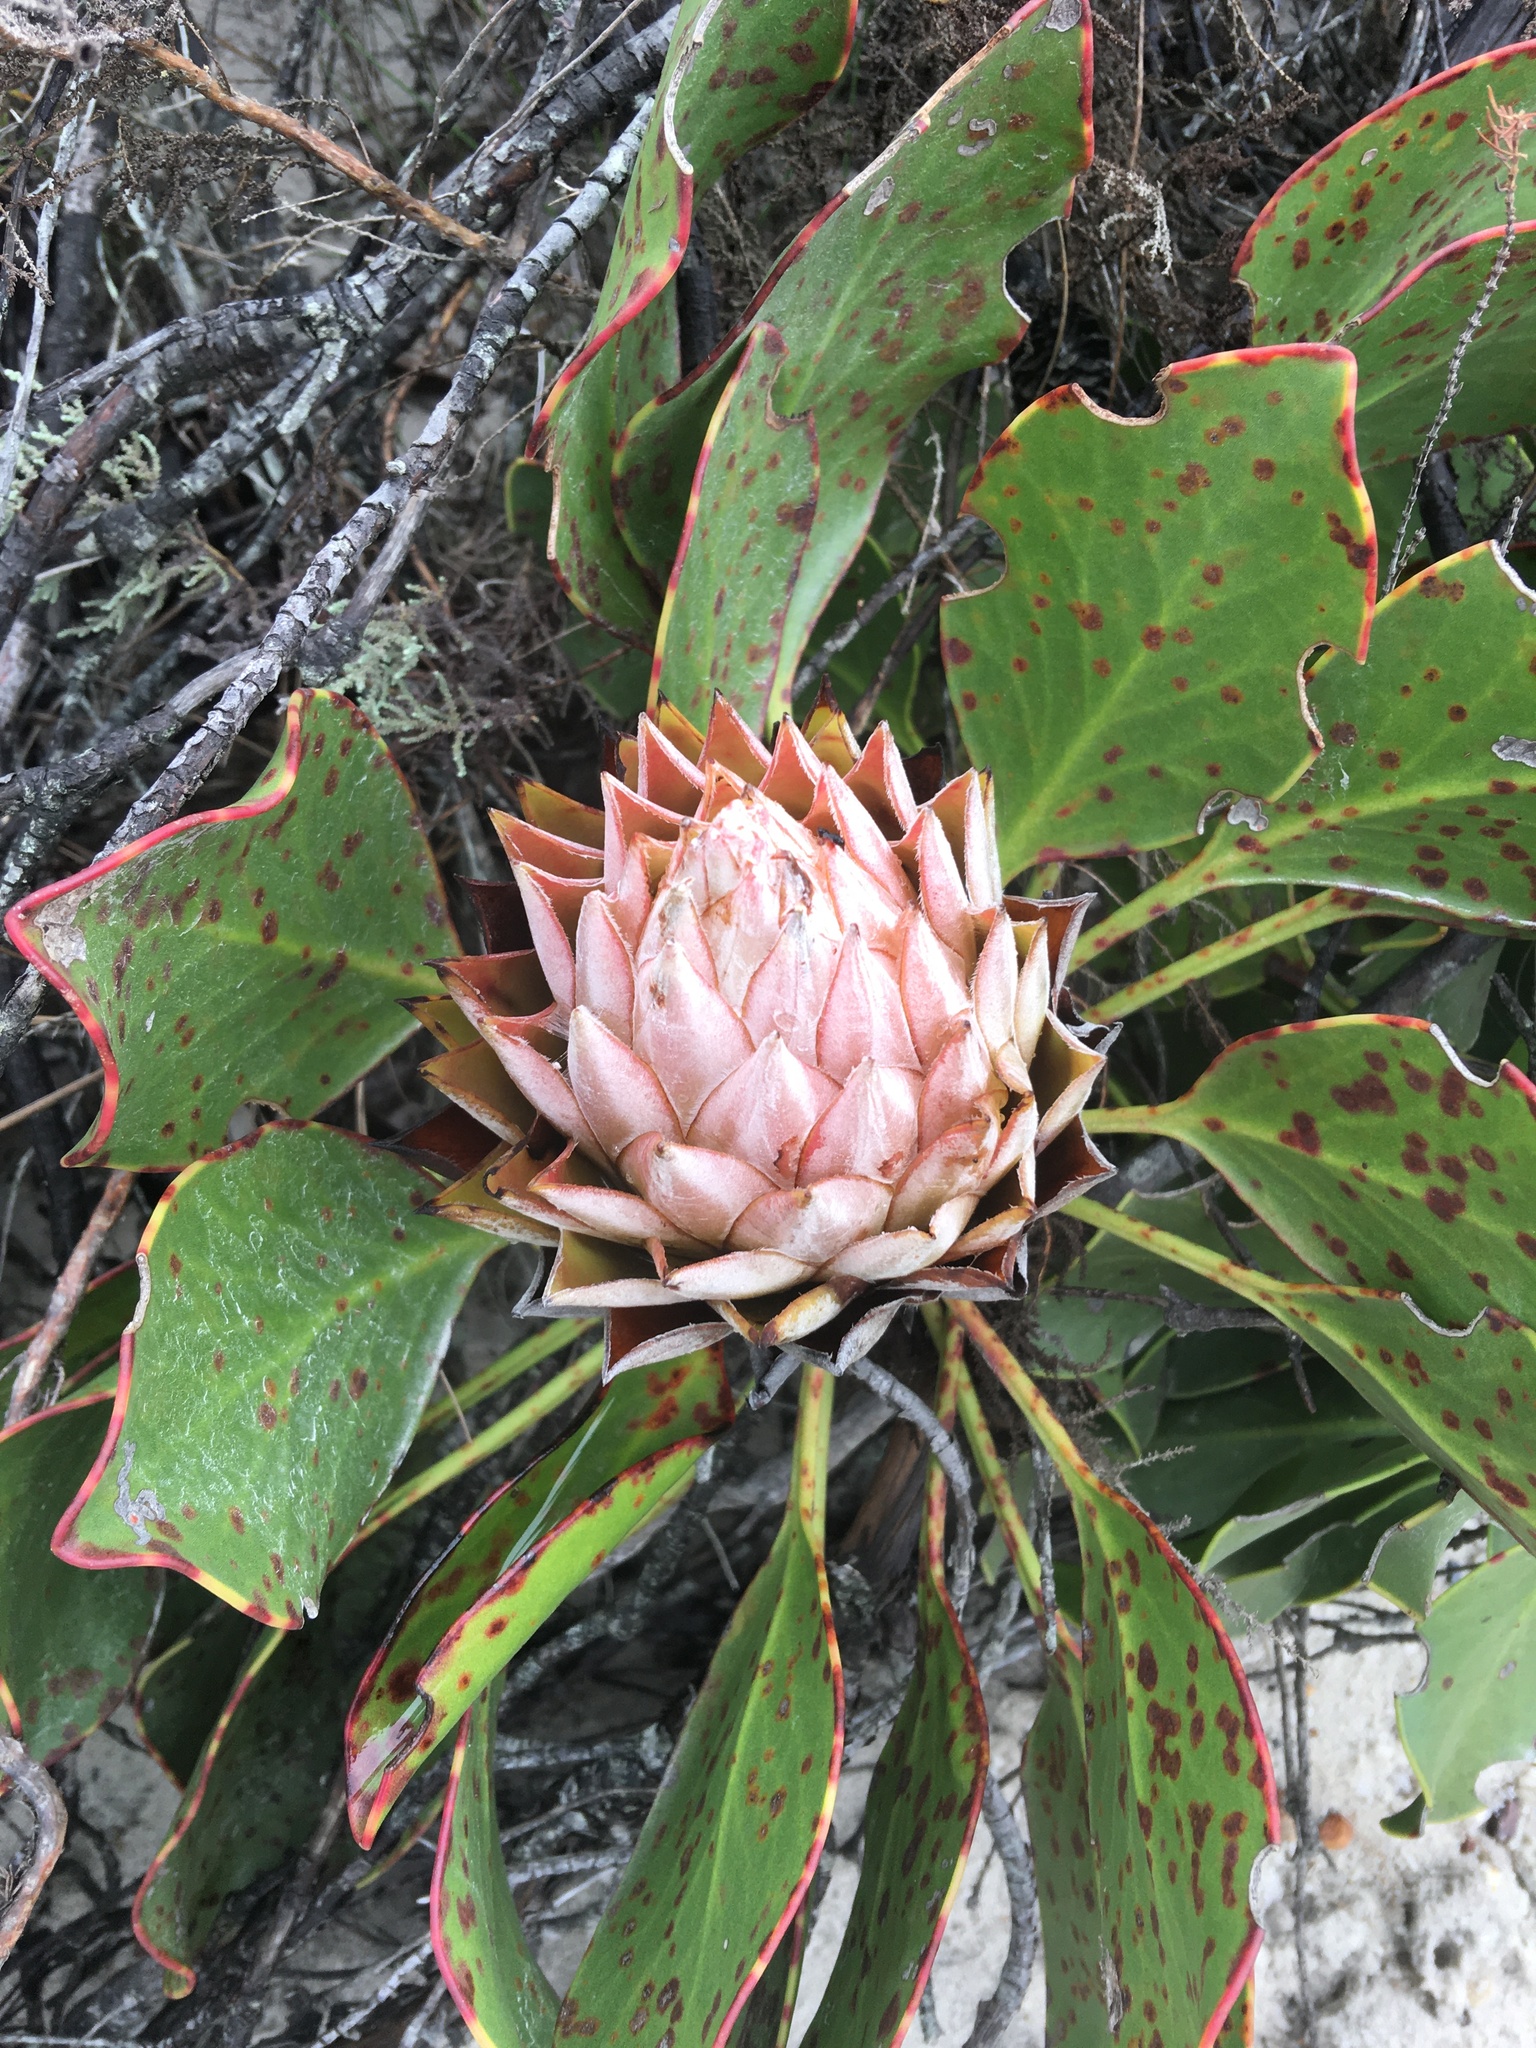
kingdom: Plantae
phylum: Tracheophyta
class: Magnoliopsida
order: Proteales
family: Proteaceae
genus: Protea
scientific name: Protea cynaroides
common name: King protea
